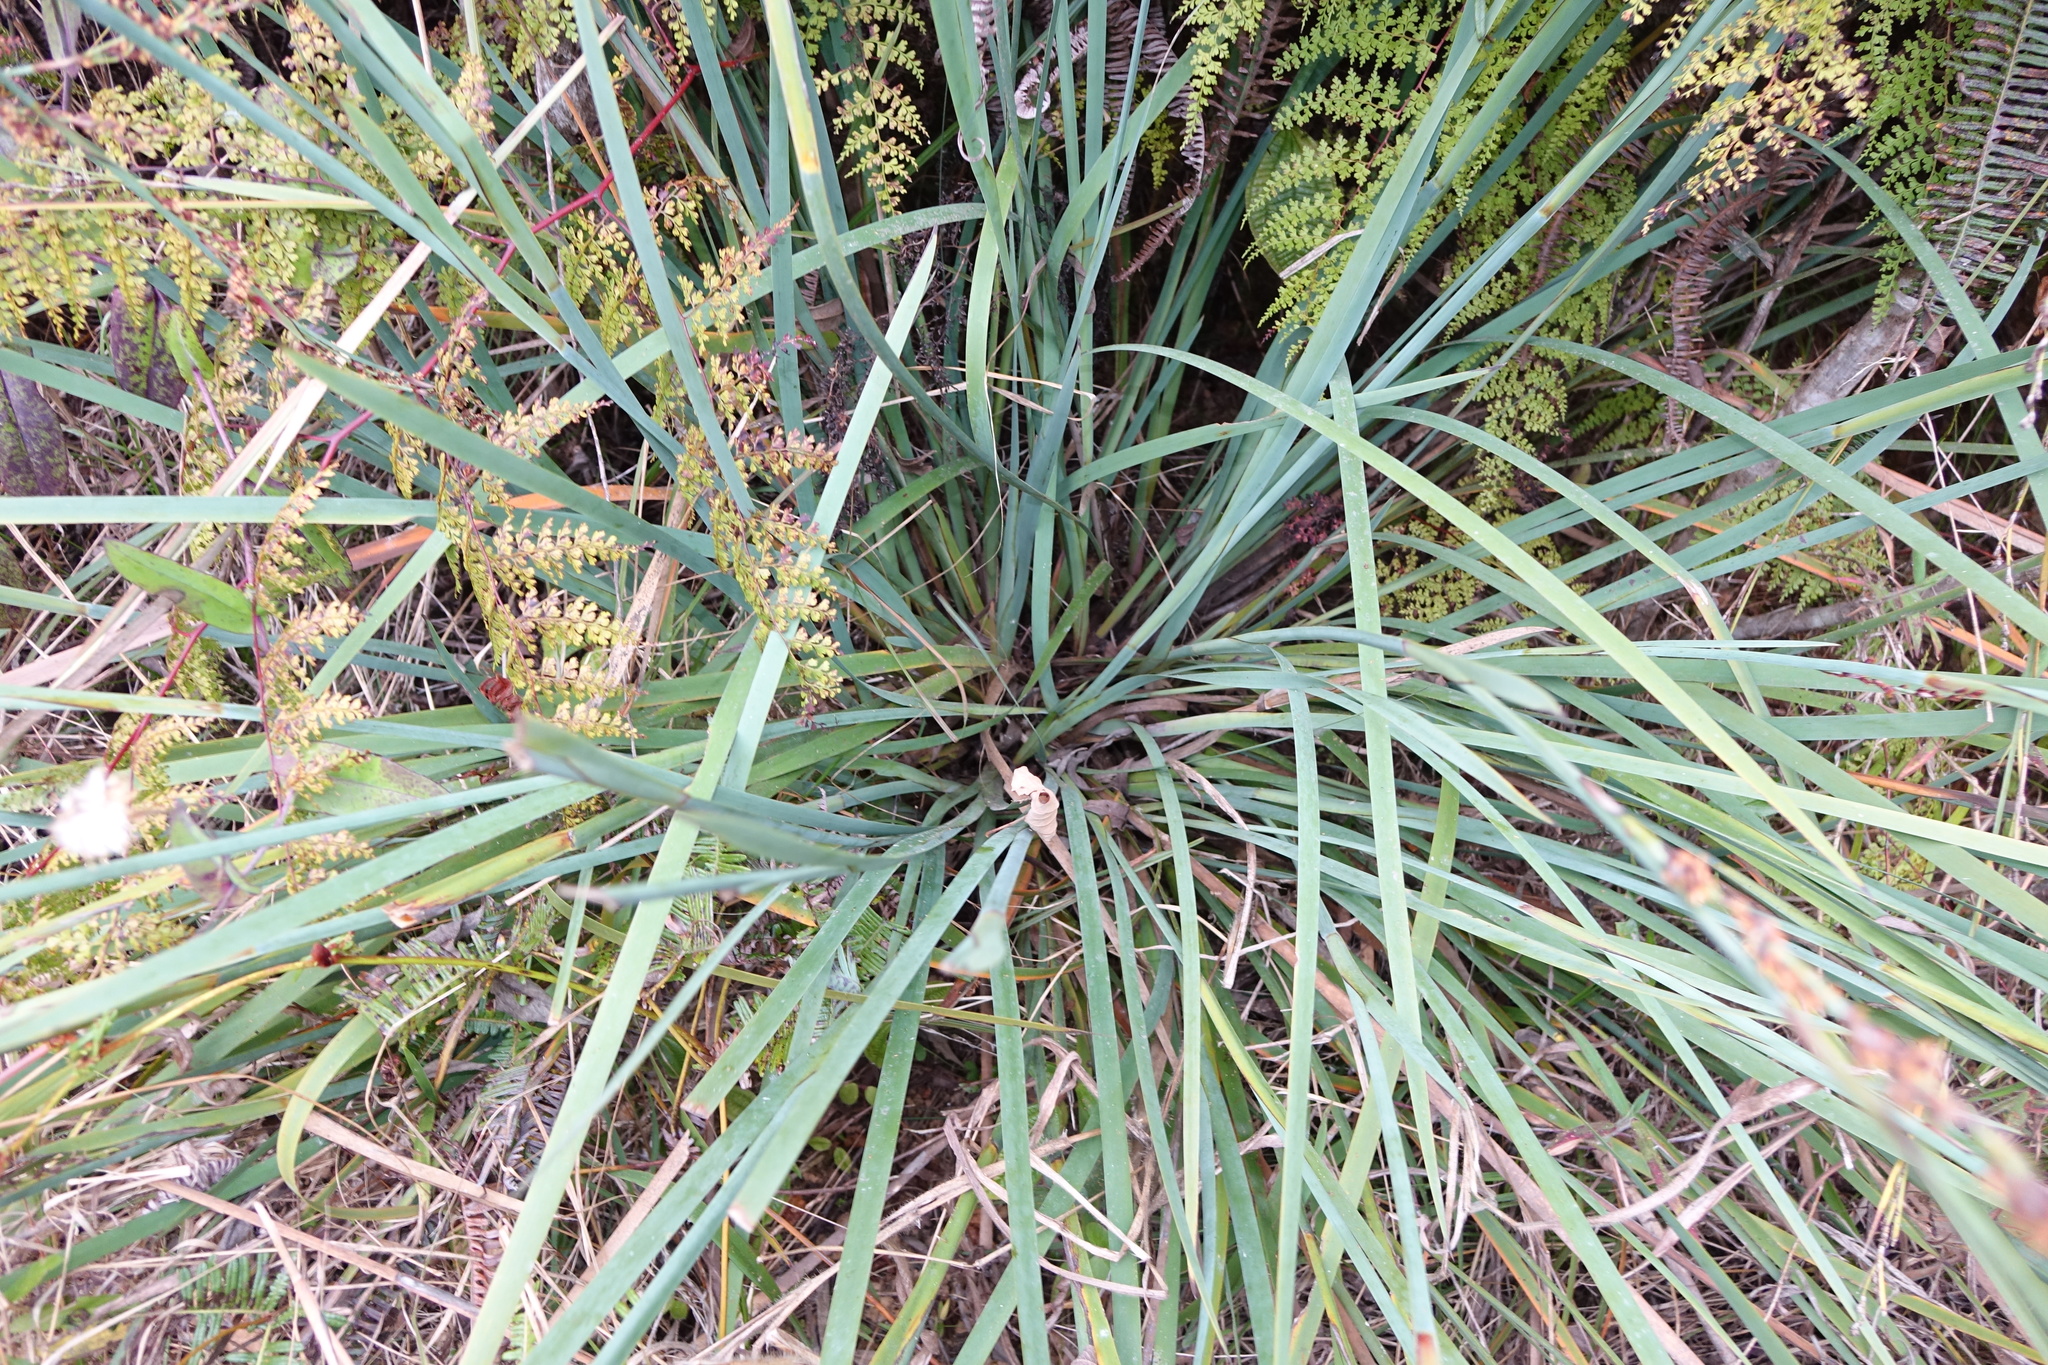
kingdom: Plantae
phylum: Tracheophyta
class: Liliopsida
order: Poales
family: Cyperaceae
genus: Costularia
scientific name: Costularia pantopoda
